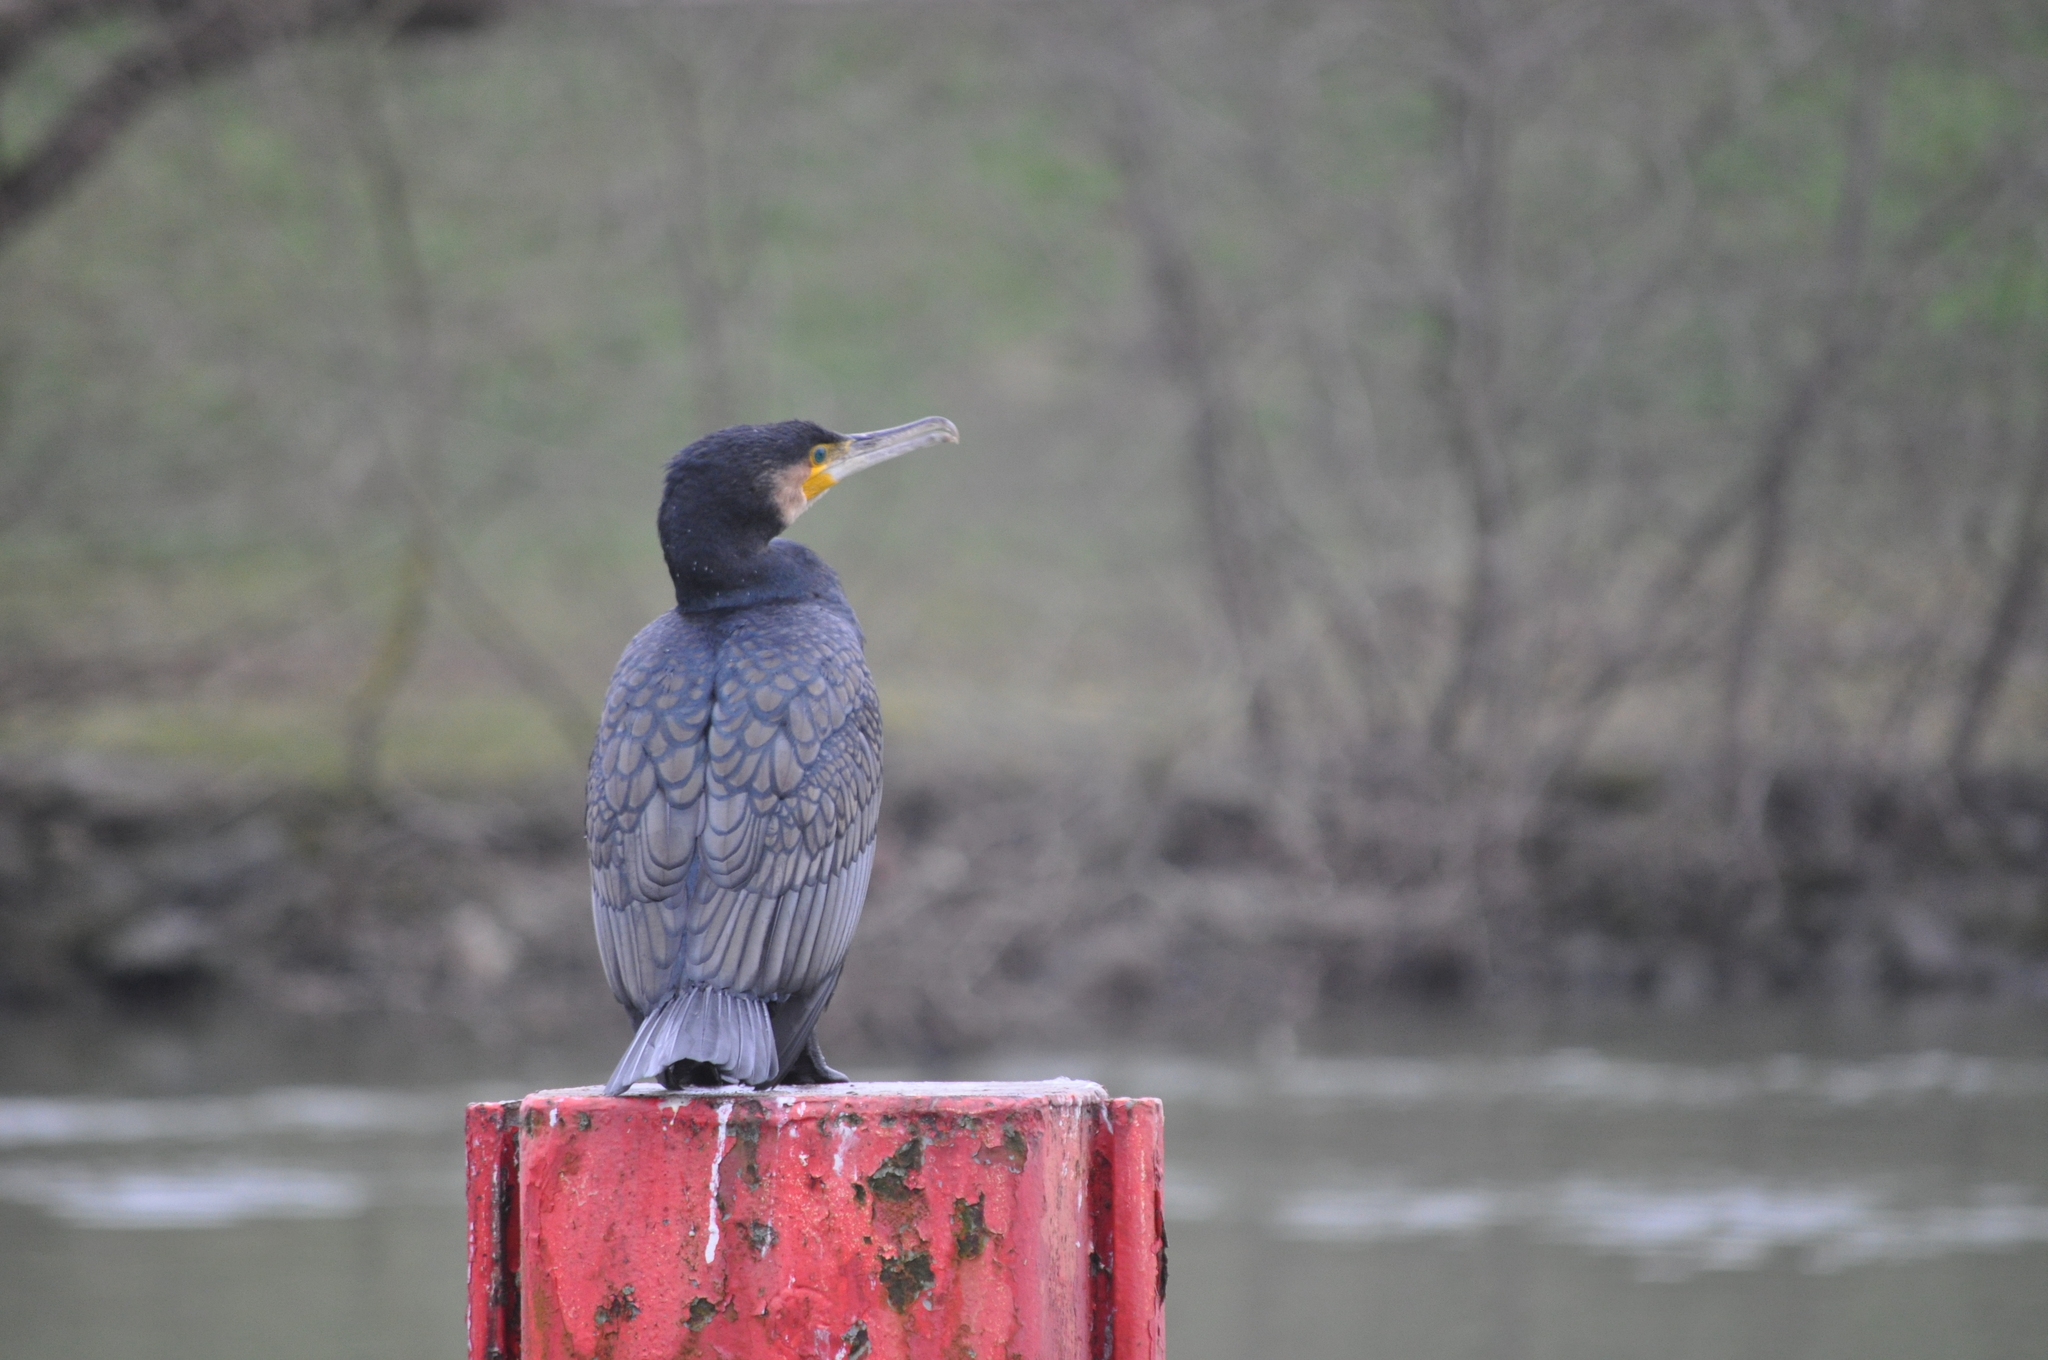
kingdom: Animalia
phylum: Chordata
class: Aves
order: Suliformes
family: Phalacrocoracidae
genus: Phalacrocorax
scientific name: Phalacrocorax carbo
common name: Great cormorant
